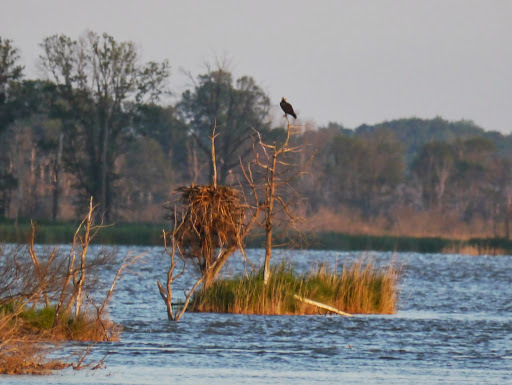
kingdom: Animalia
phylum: Chordata
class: Aves
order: Accipitriformes
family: Pandionidae
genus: Pandion
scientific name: Pandion haliaetus
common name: Osprey
